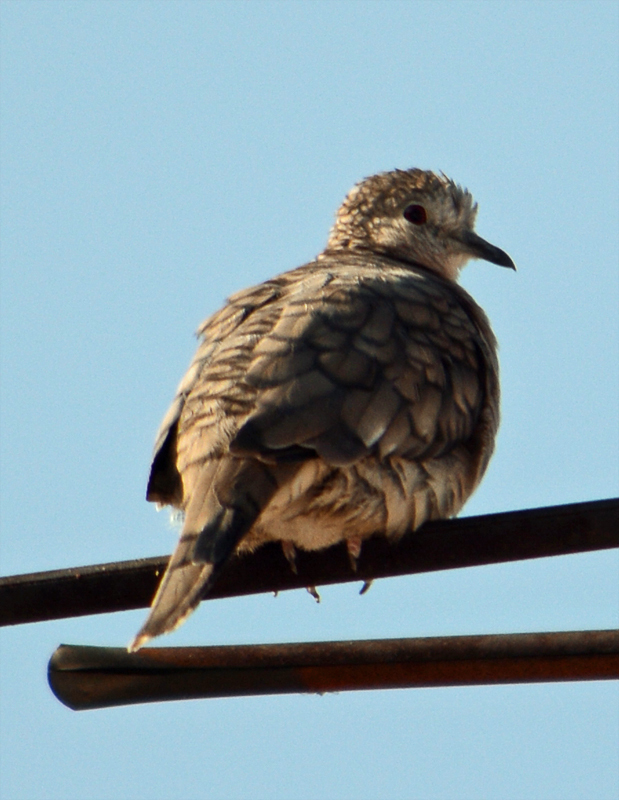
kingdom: Animalia
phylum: Chordata
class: Aves
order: Columbiformes
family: Columbidae
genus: Columbina
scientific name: Columbina inca
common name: Inca dove
